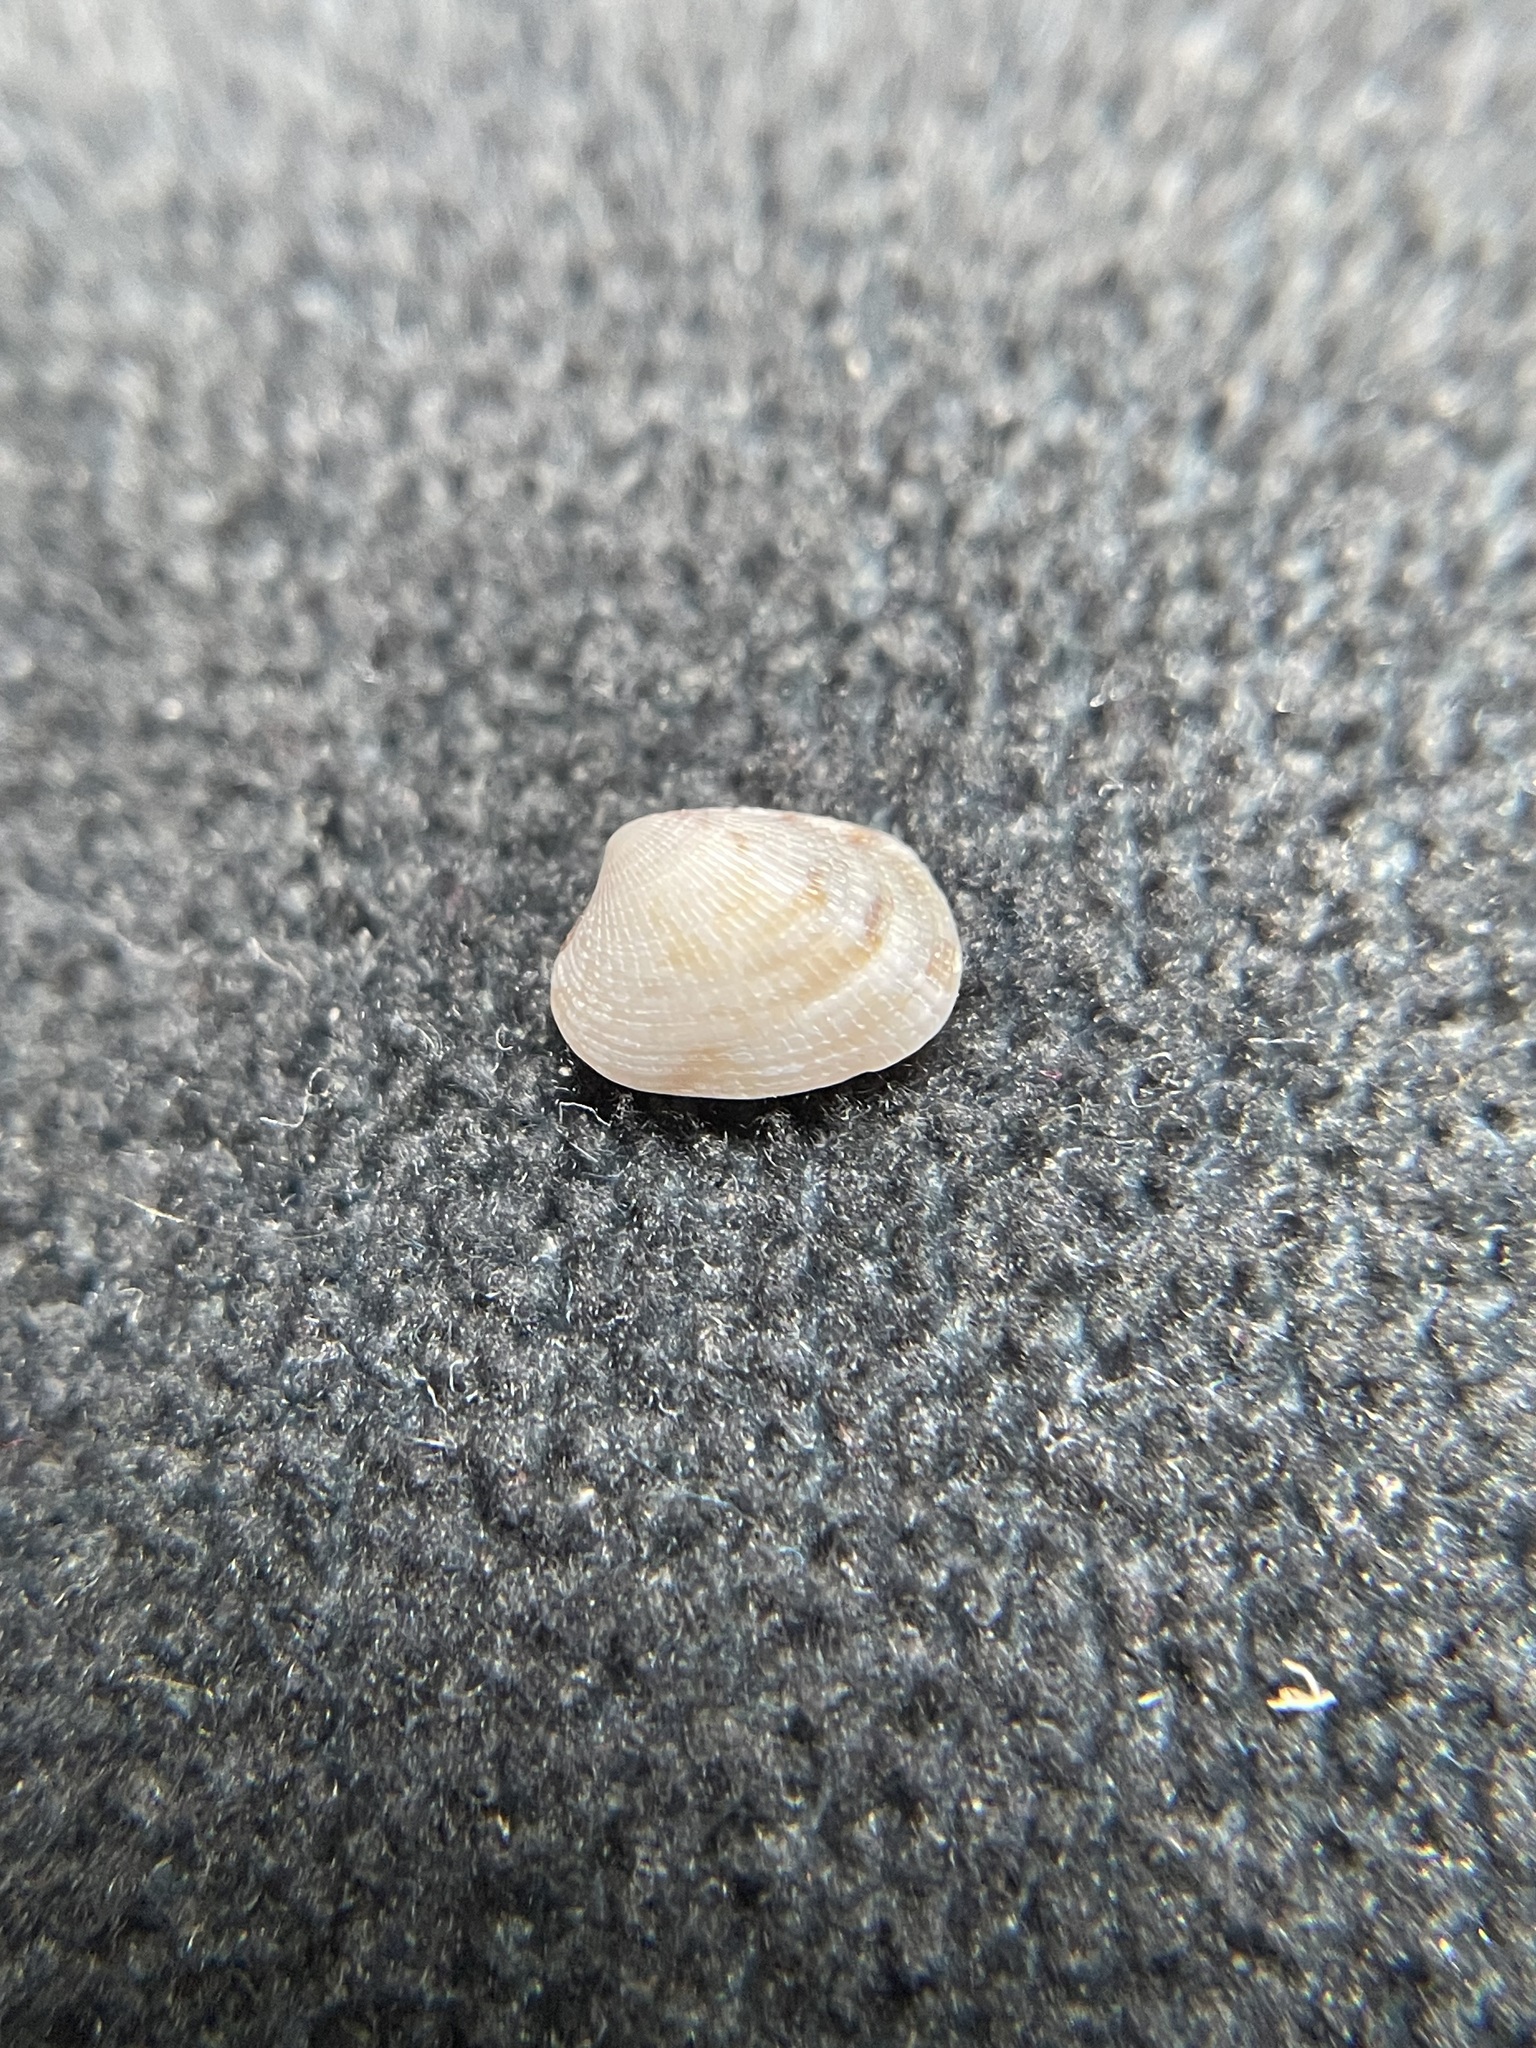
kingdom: Animalia
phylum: Mollusca
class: Bivalvia
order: Venerida
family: Veneridae
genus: Chioneryx
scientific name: Chioneryx grus
